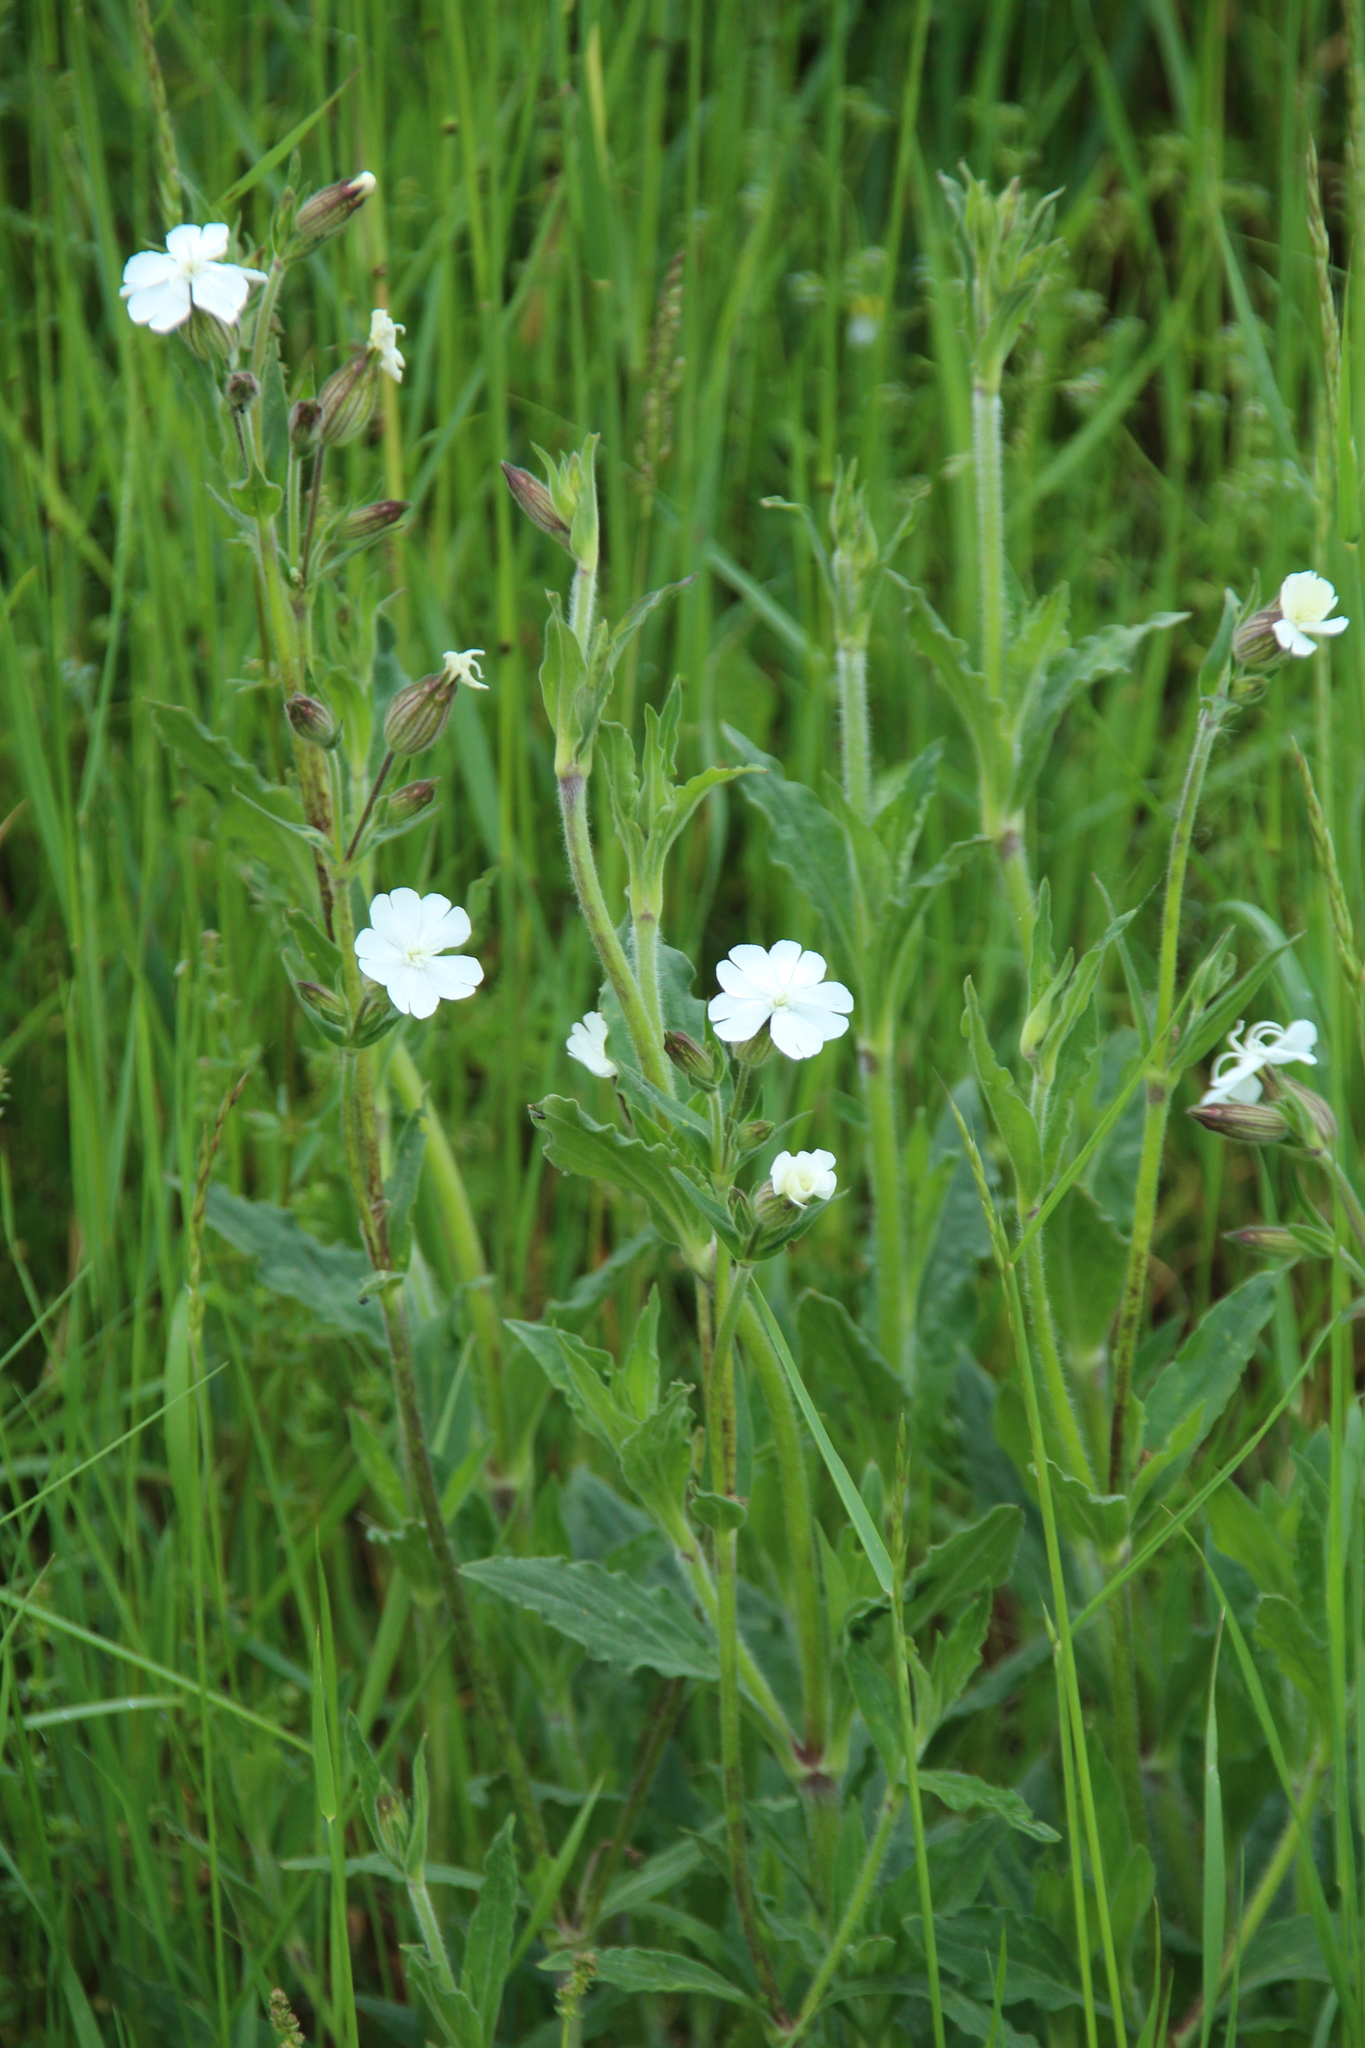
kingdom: Plantae
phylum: Tracheophyta
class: Magnoliopsida
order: Caryophyllales
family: Caryophyllaceae
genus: Silene
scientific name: Silene latifolia
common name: White campion
